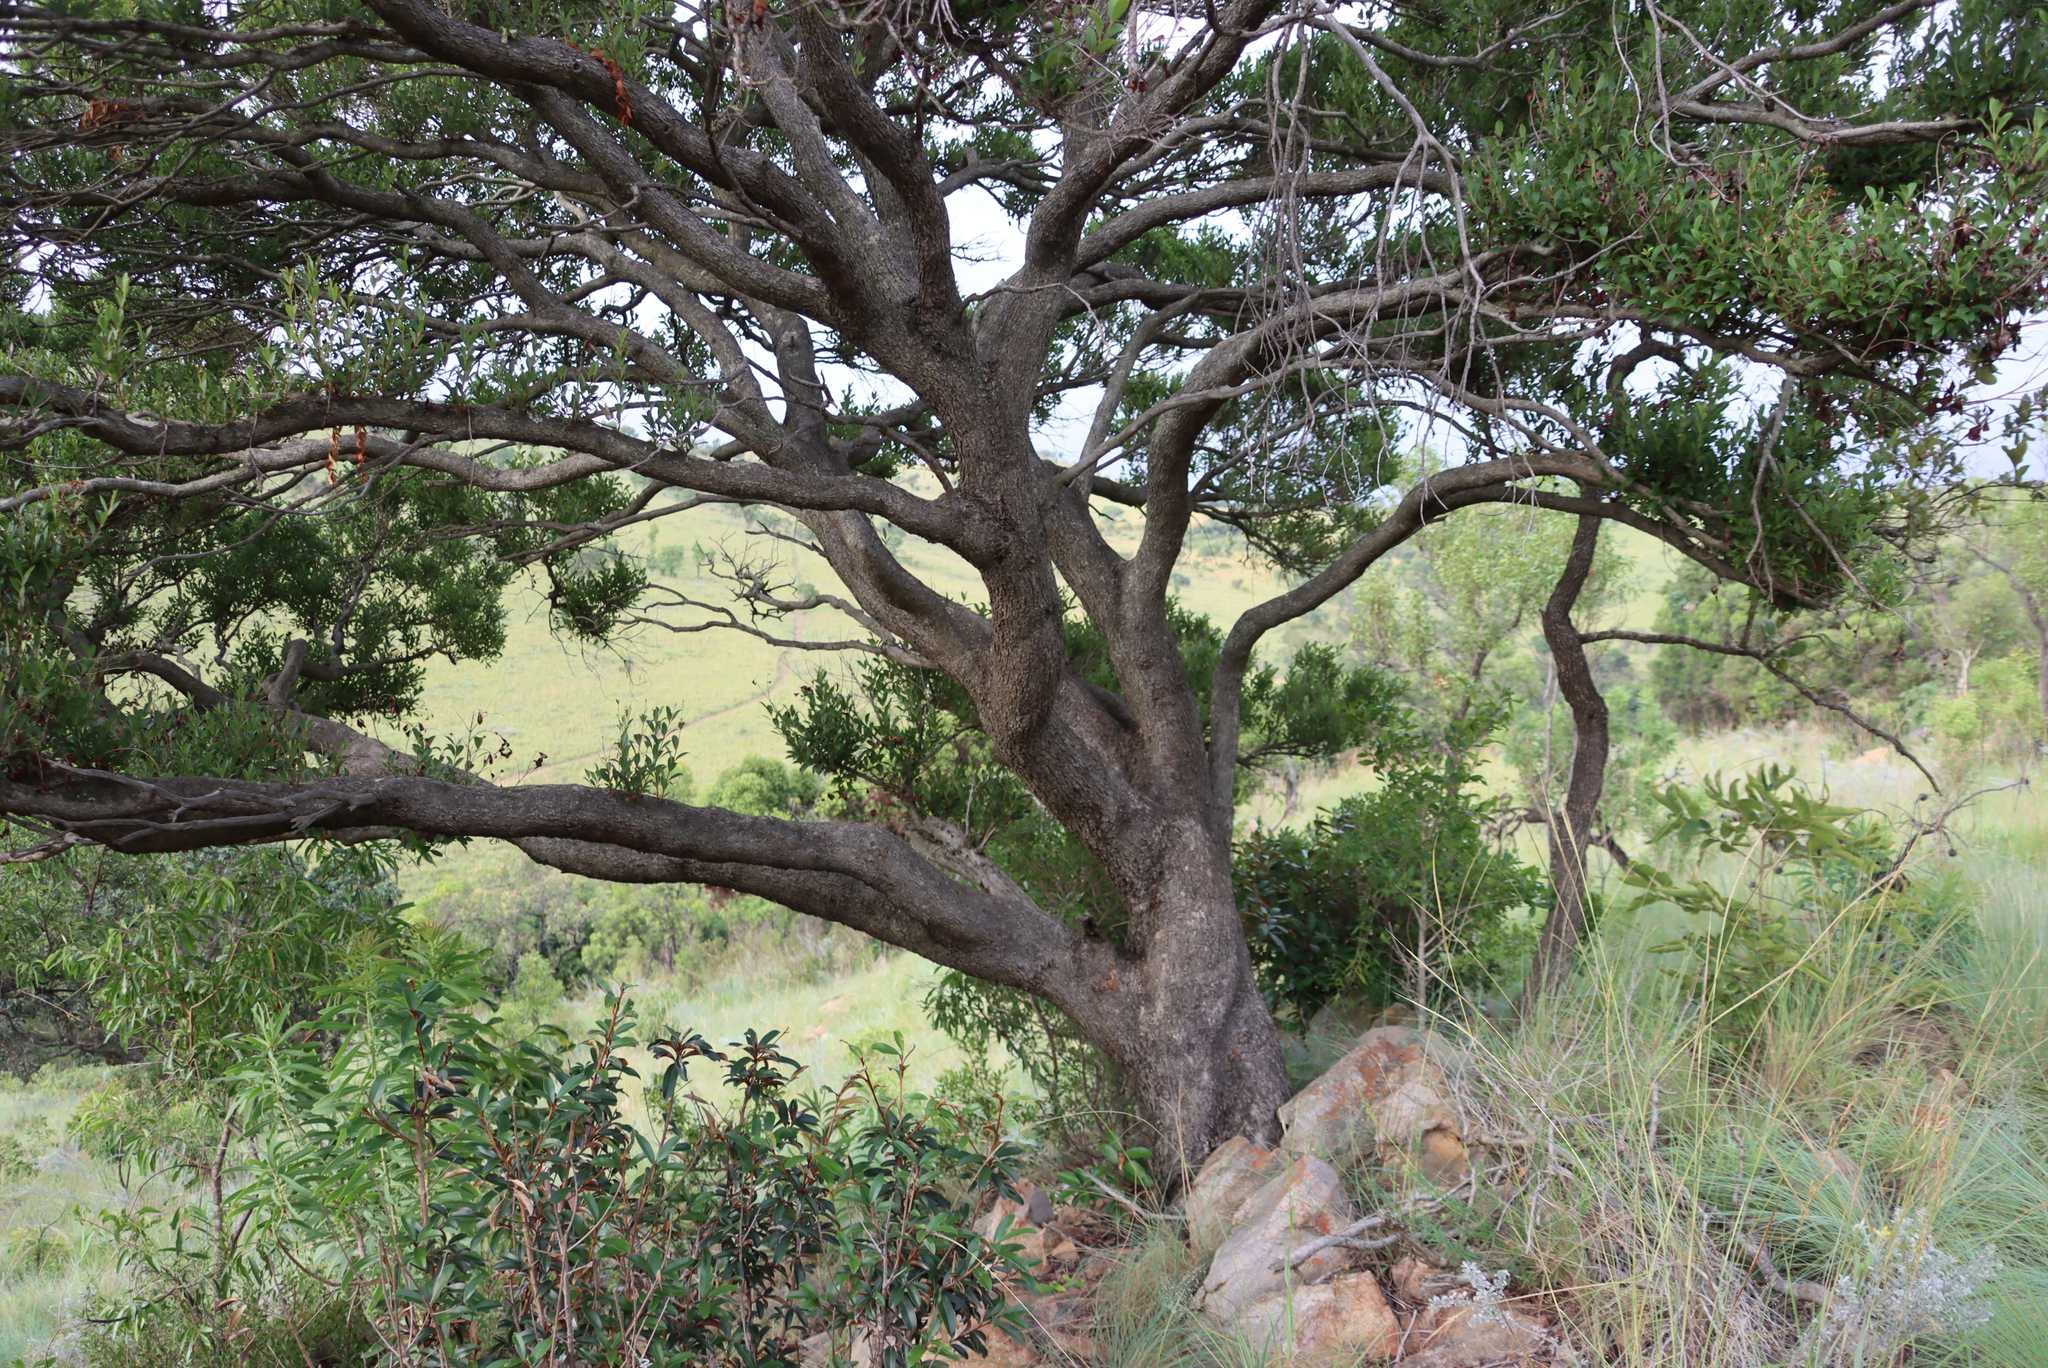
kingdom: Plantae
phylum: Tracheophyta
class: Magnoliopsida
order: Myrtales
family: Myrtaceae
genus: Syzygium
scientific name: Syzygium legatii
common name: Mountain waterberry
